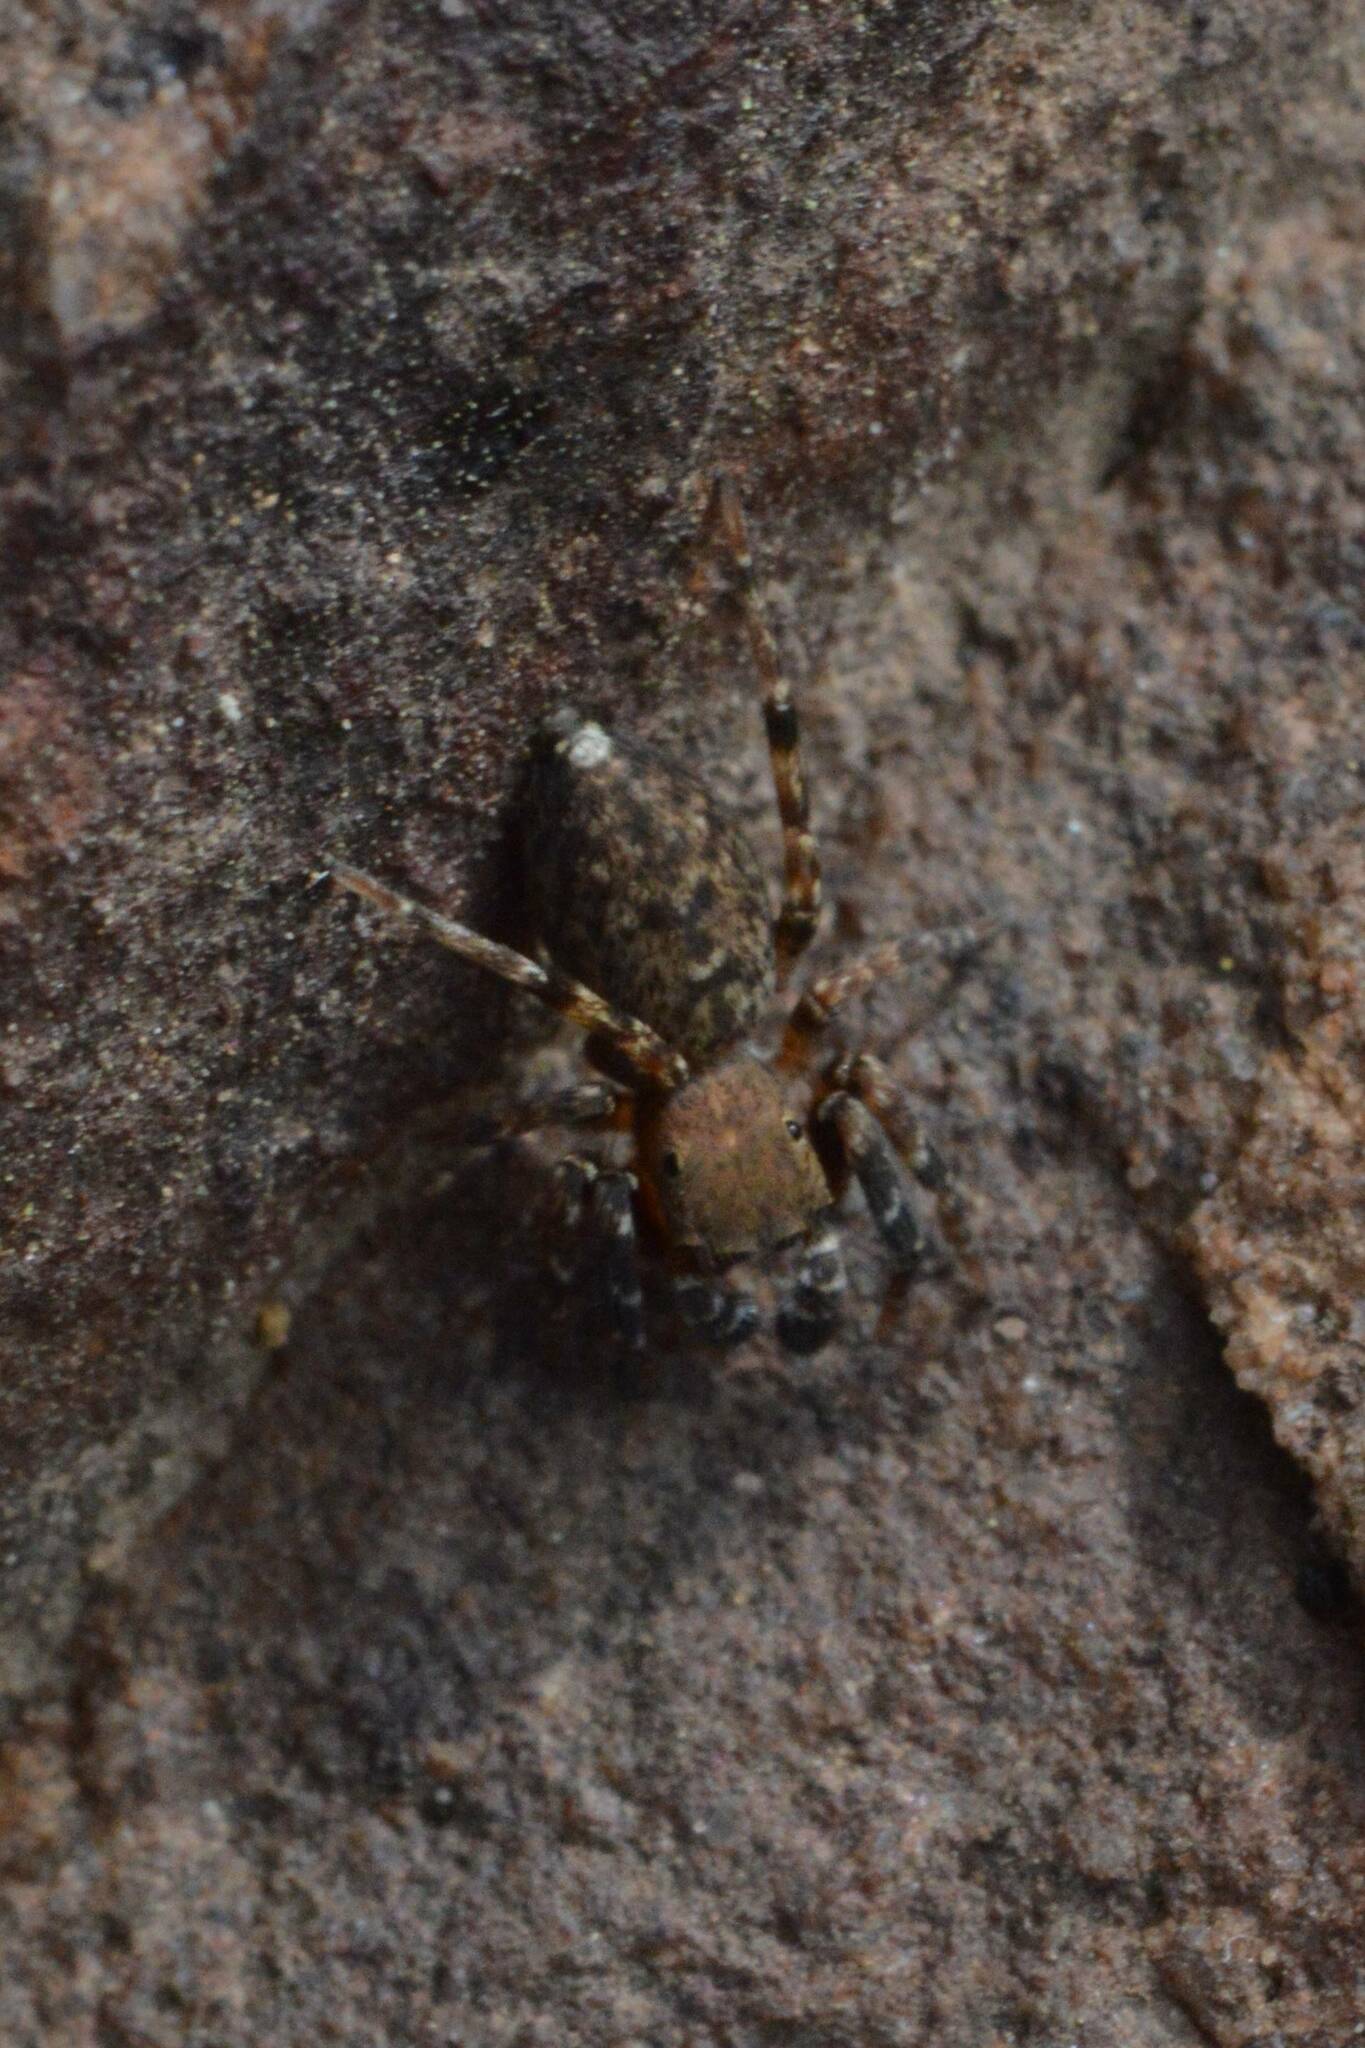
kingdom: Animalia
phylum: Arthropoda
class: Arachnida
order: Araneae
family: Salticidae
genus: Cyrba
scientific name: Cyrba algerina
